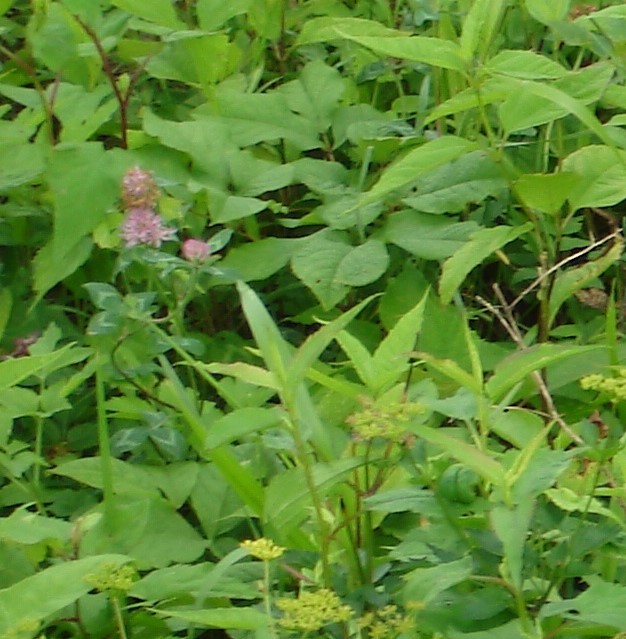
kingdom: Plantae
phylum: Tracheophyta
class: Magnoliopsida
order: Fabales
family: Fabaceae
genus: Trifolium
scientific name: Trifolium pratense
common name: Red clover
